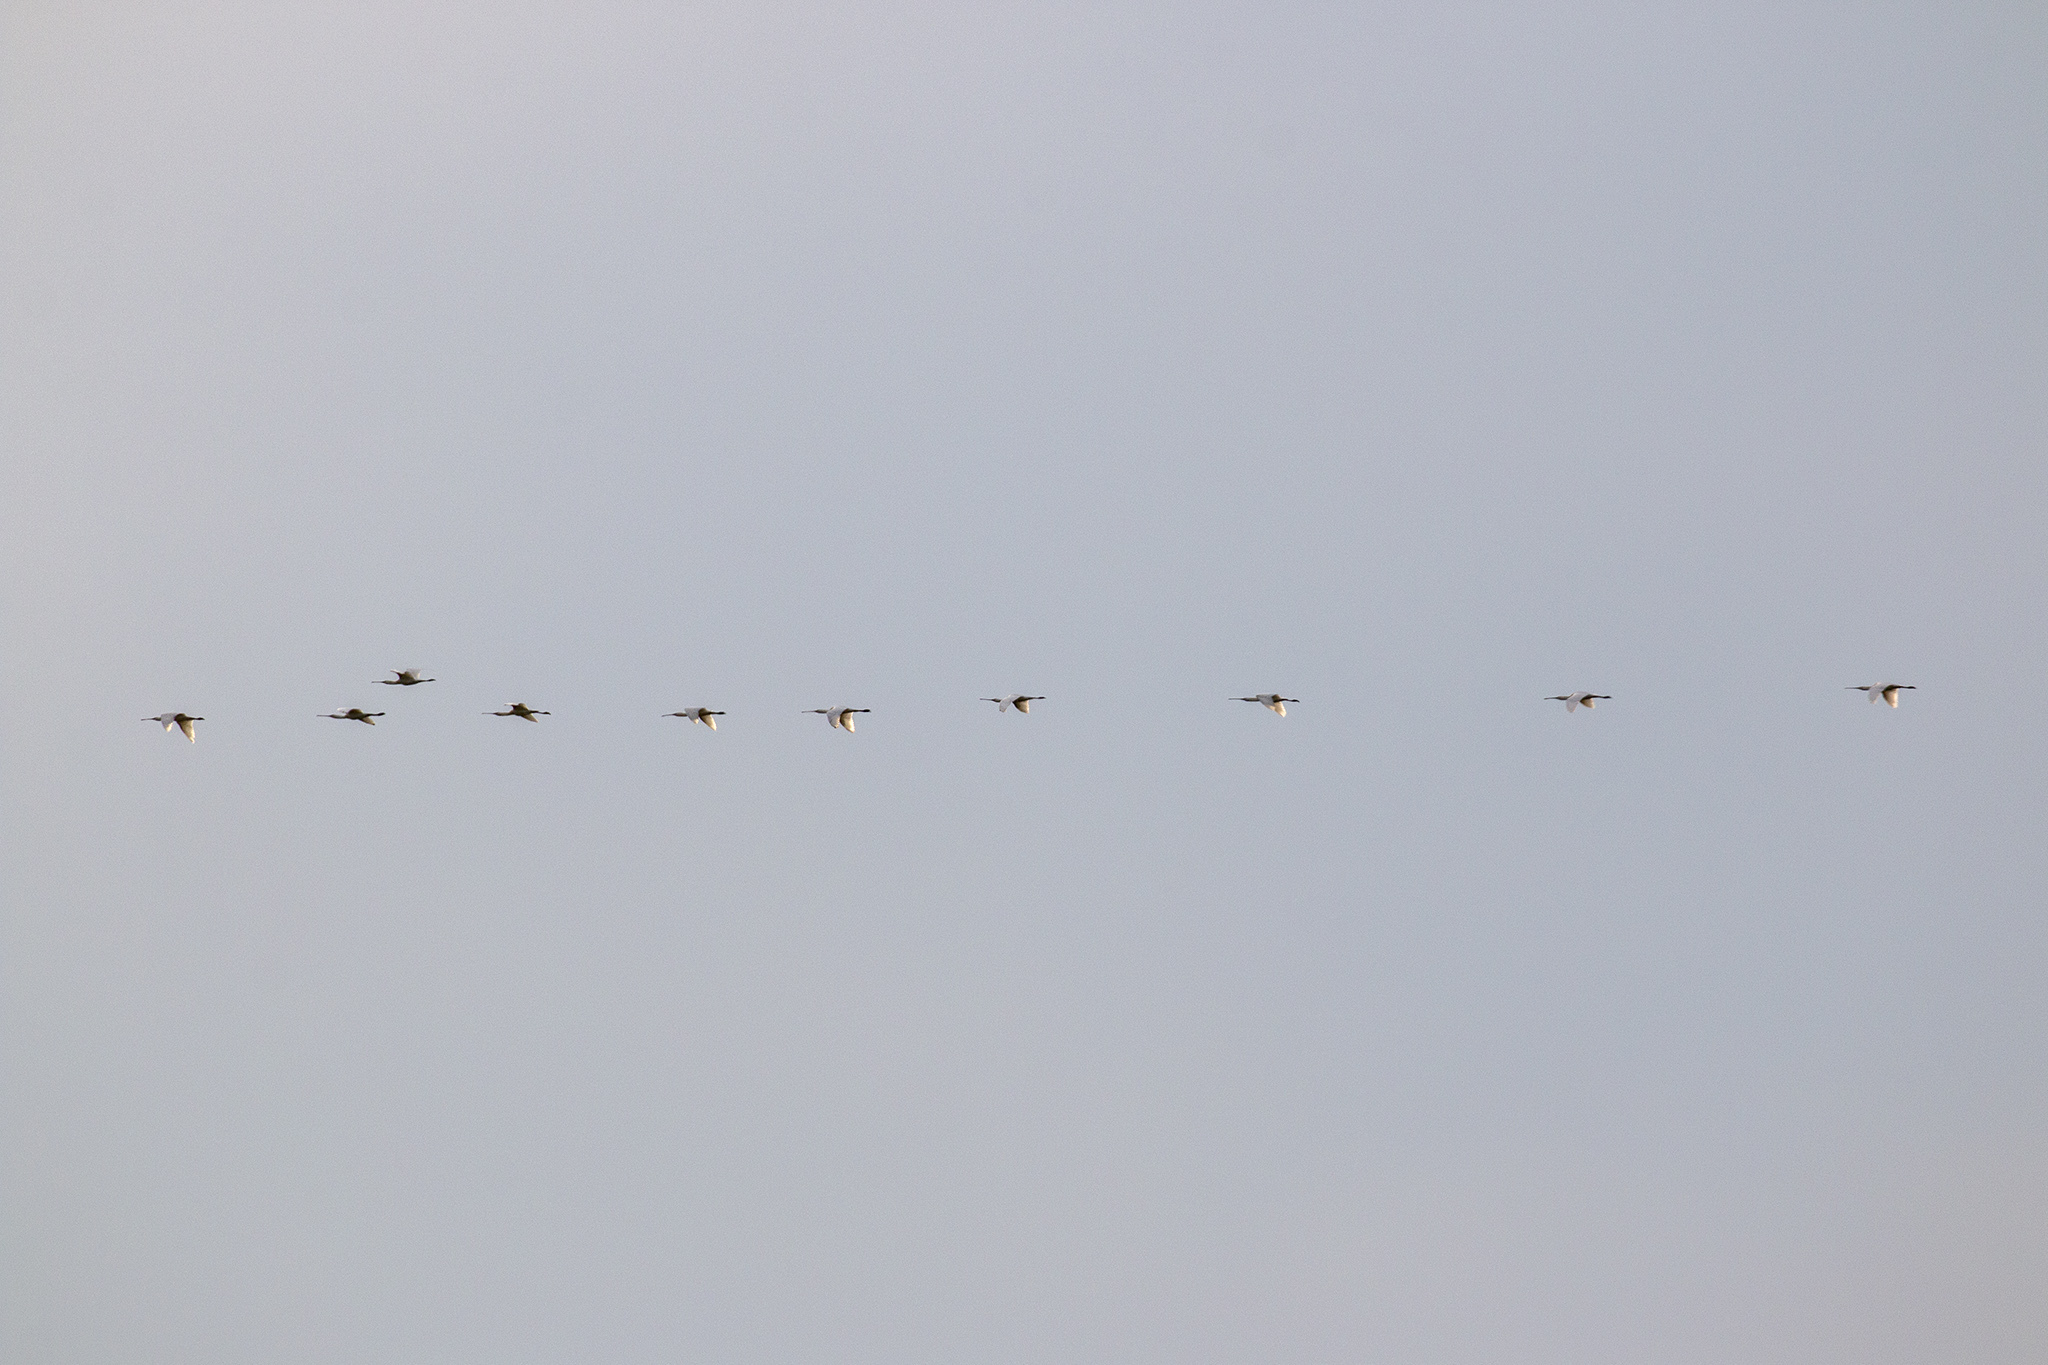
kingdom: Animalia
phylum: Chordata
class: Aves
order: Pelecaniformes
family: Threskiornithidae
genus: Platalea
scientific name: Platalea leucorodia
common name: Eurasian spoonbill
